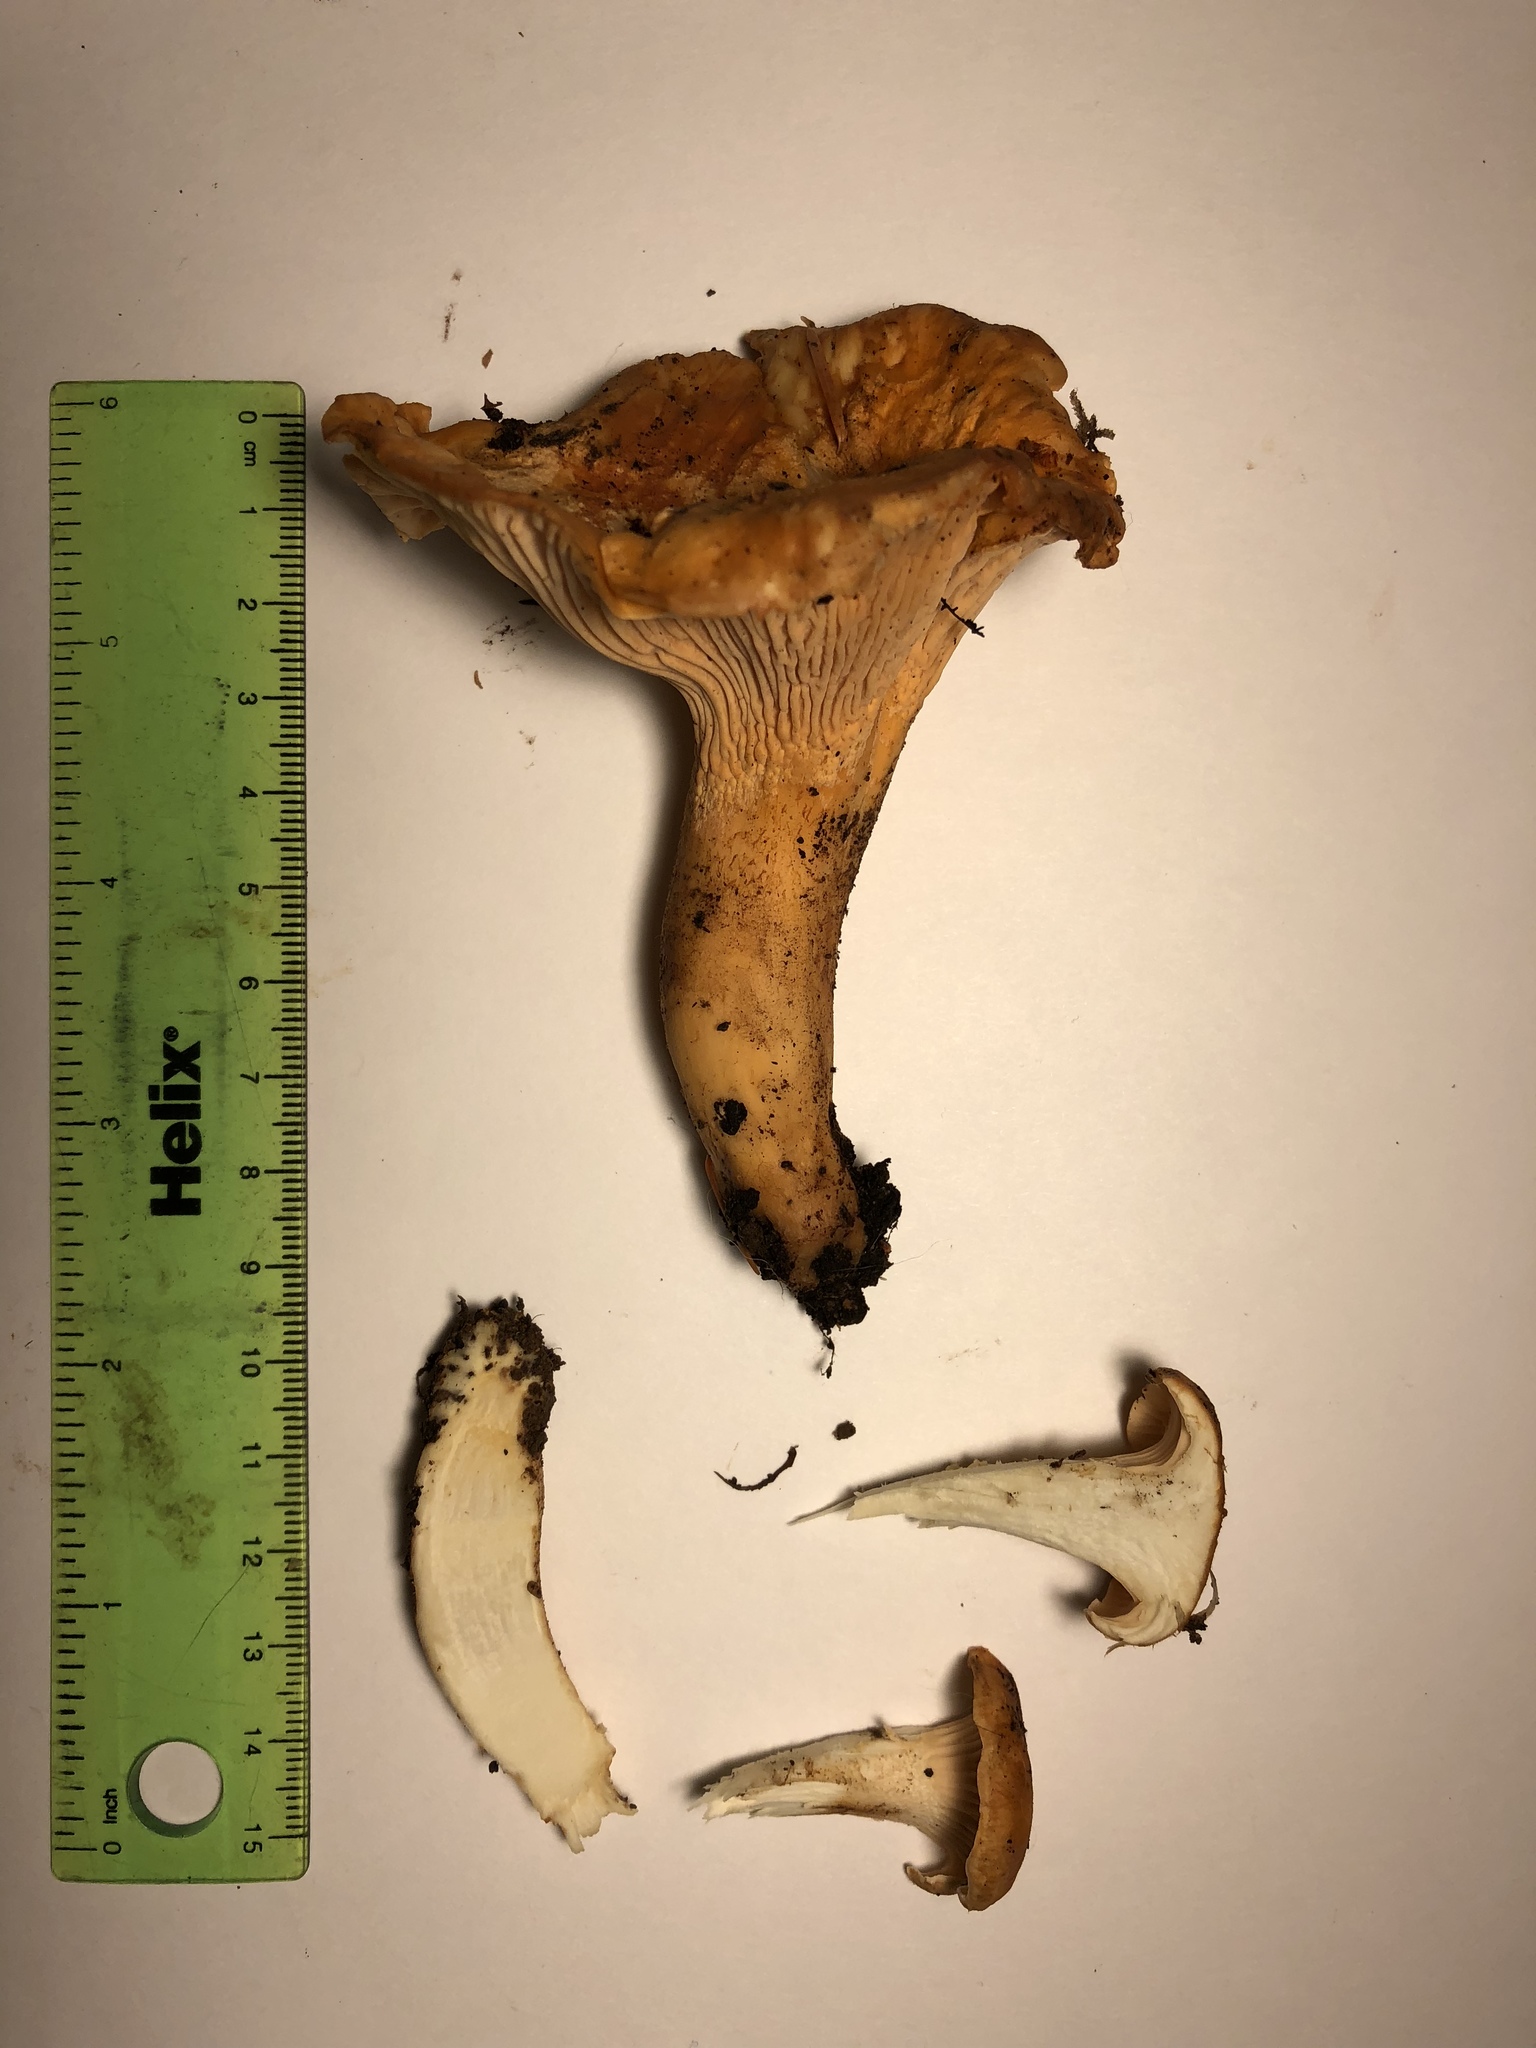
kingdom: Fungi
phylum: Basidiomycota
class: Agaricomycetes
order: Cantharellales
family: Hydnaceae
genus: Cantharellus
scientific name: Cantharellus formosus
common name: Pacific golden chanterelle
